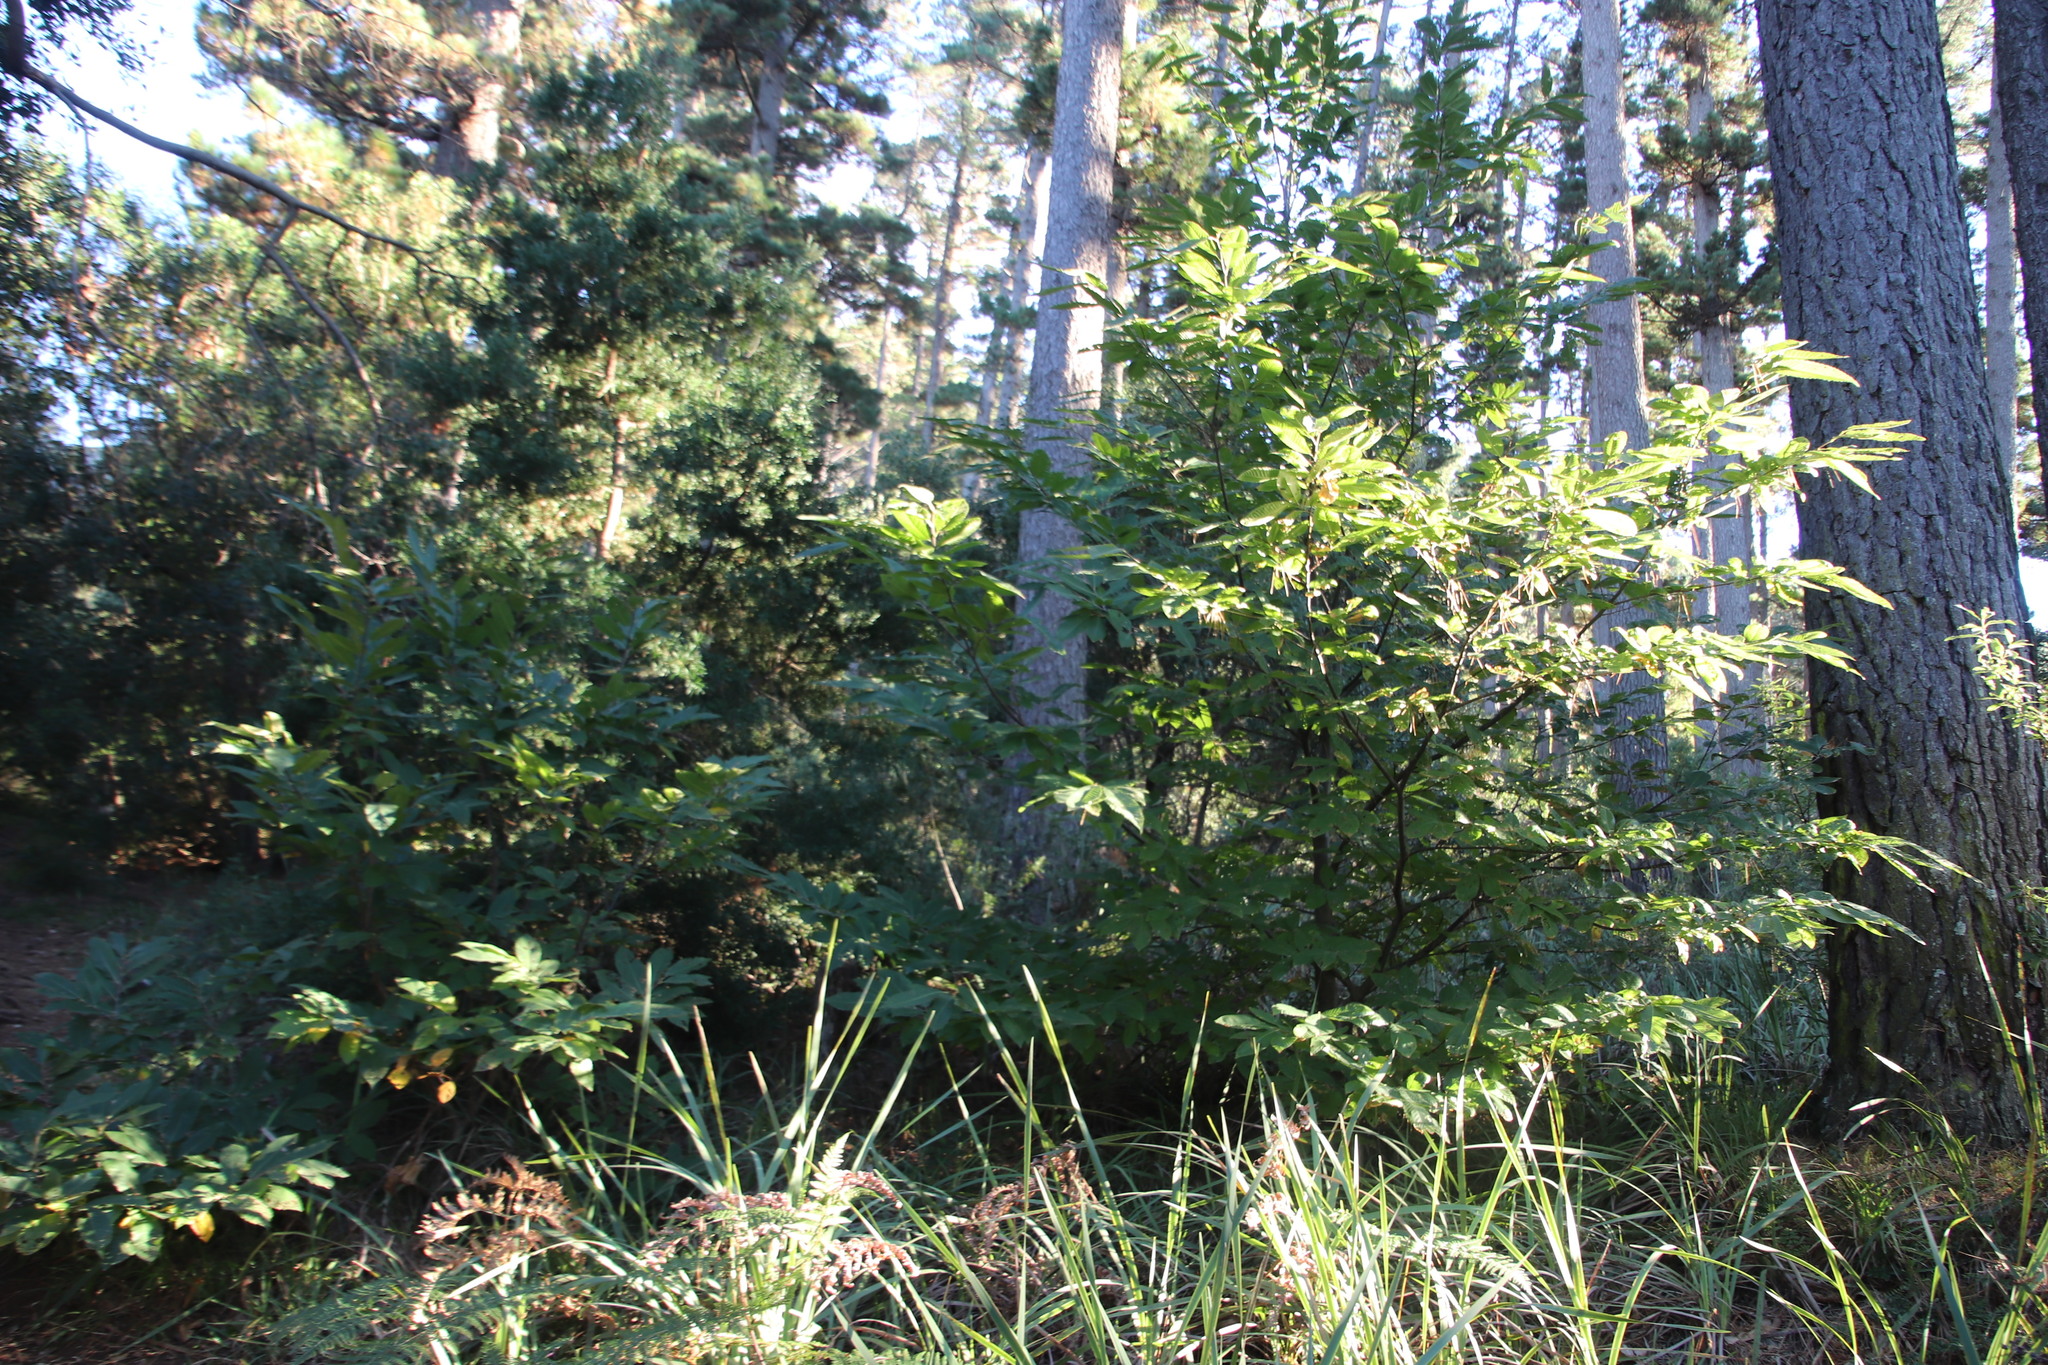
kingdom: Plantae
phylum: Tracheophyta
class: Magnoliopsida
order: Fagales
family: Fagaceae
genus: Castanea
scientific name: Castanea sativa
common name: Sweet chestnut
